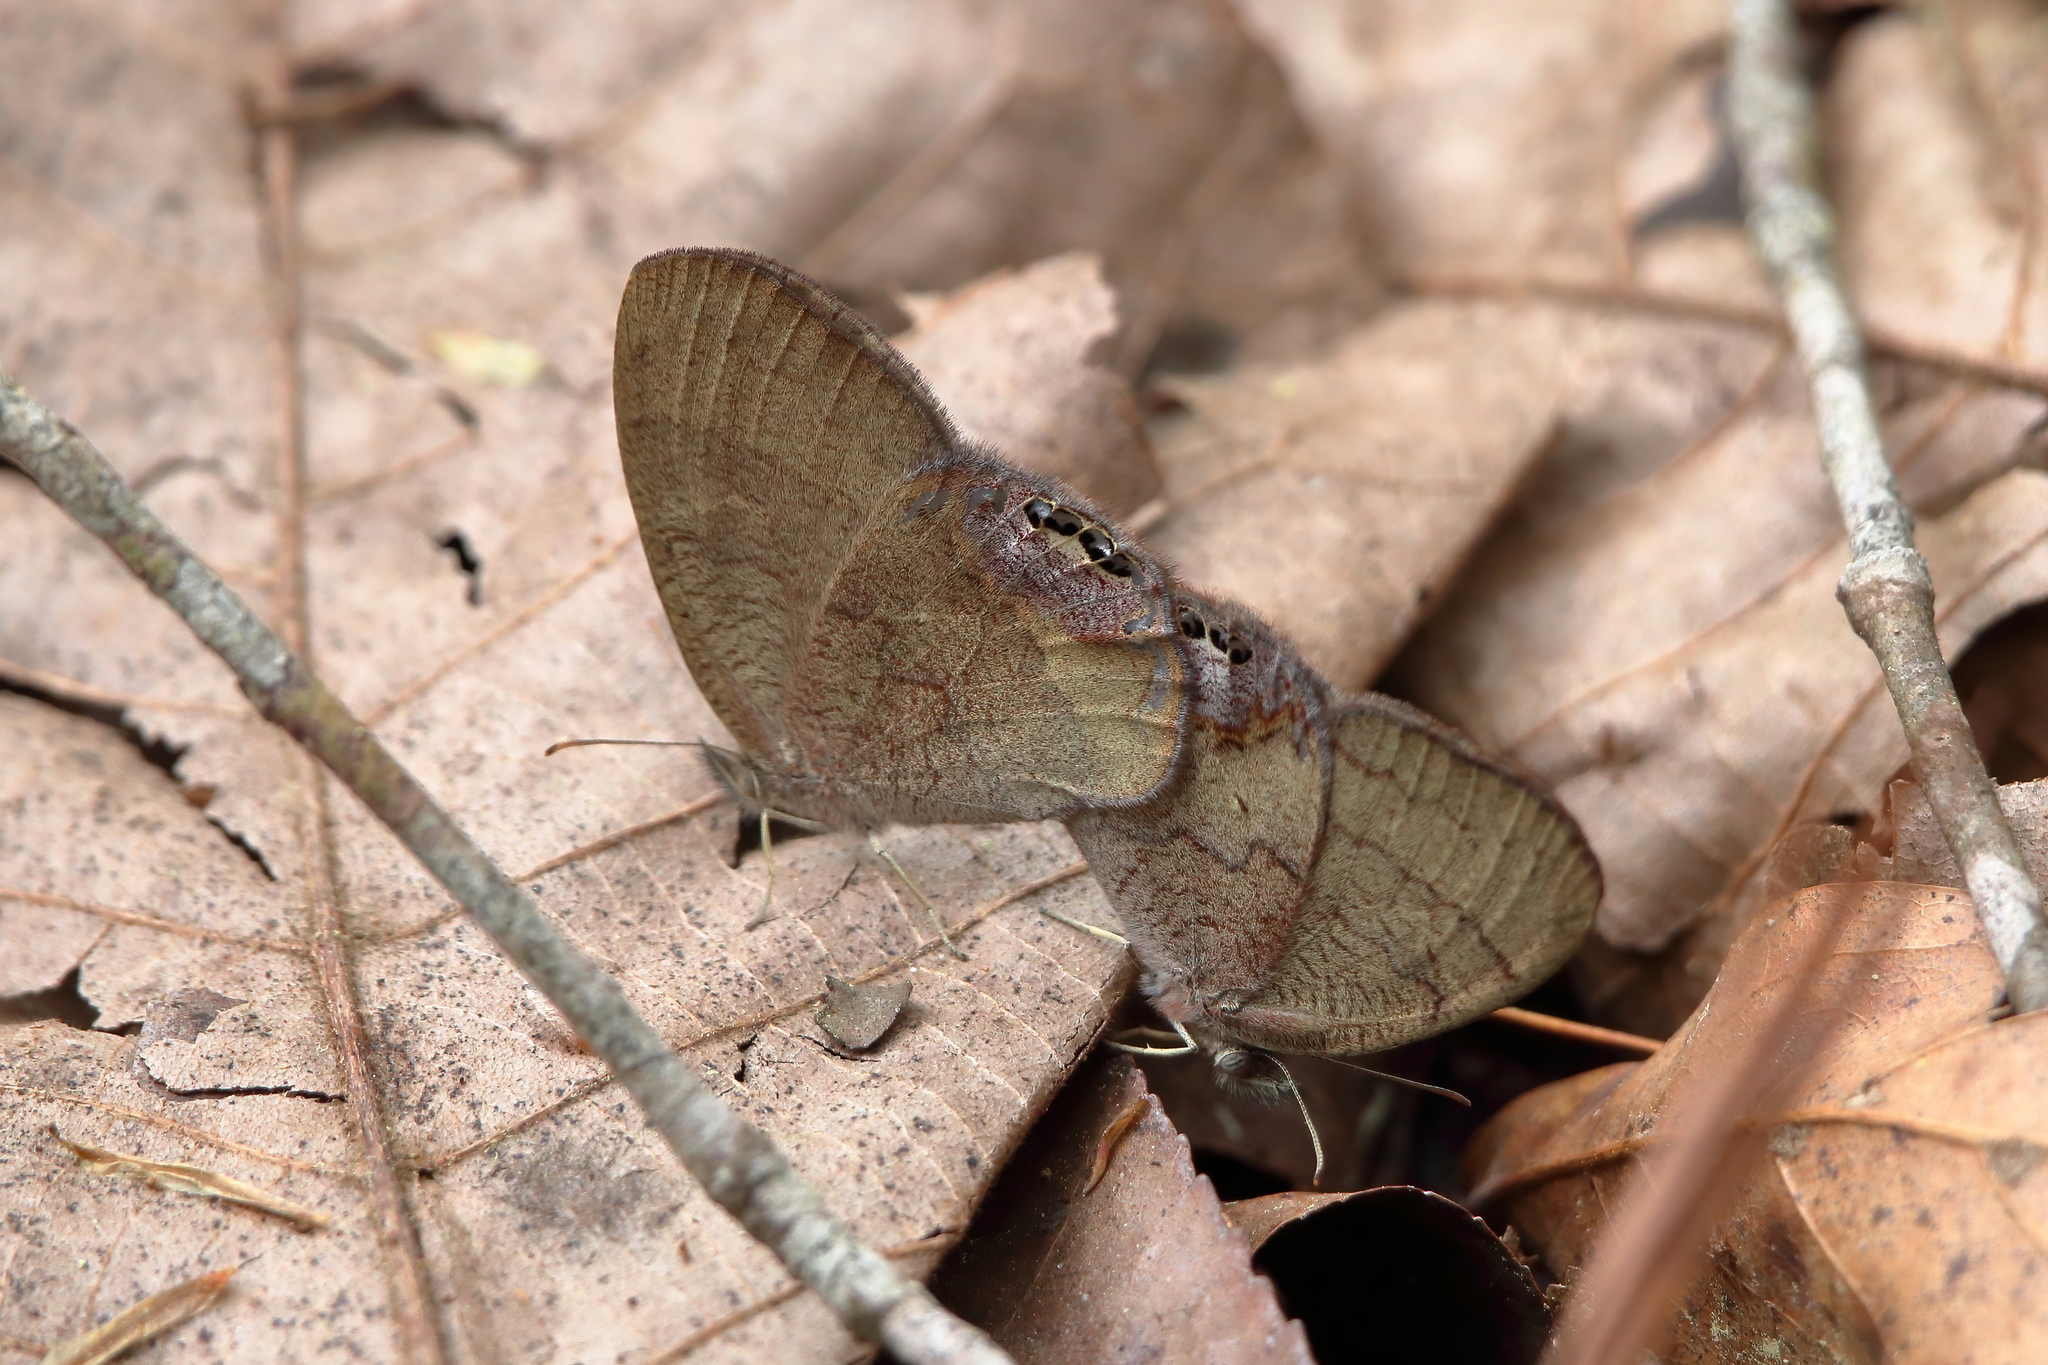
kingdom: Animalia
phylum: Arthropoda
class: Insecta
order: Lepidoptera
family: Nymphalidae
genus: Euptychia
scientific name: Euptychia cornelius
